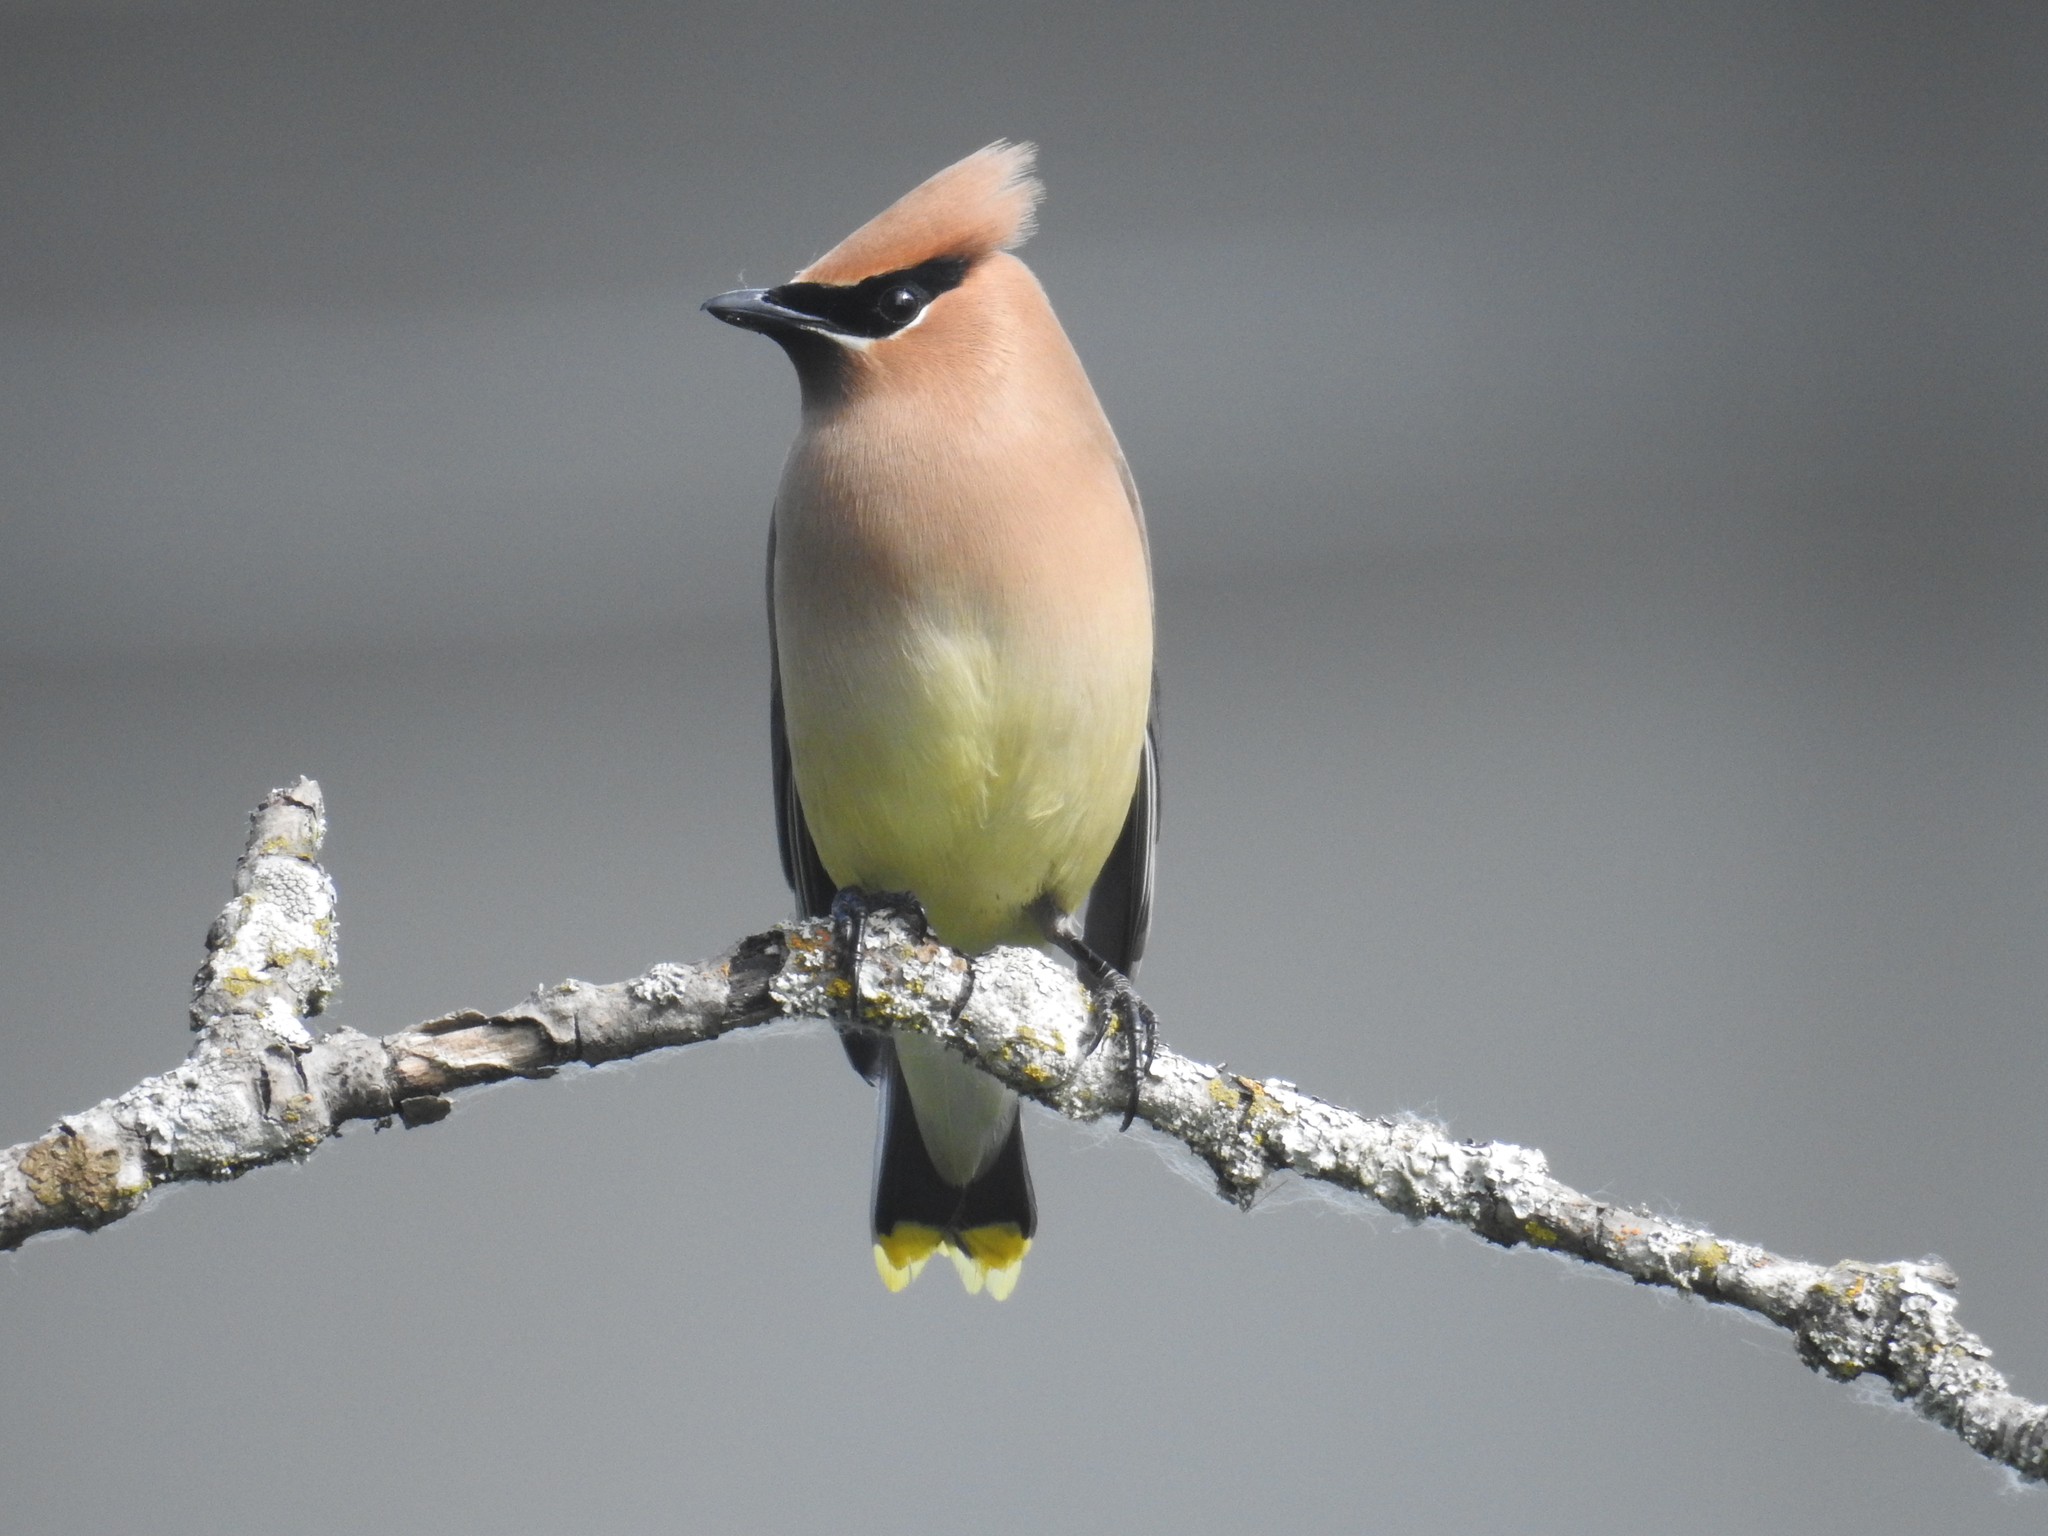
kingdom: Animalia
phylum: Chordata
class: Aves
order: Passeriformes
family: Bombycillidae
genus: Bombycilla
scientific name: Bombycilla cedrorum
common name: Cedar waxwing
